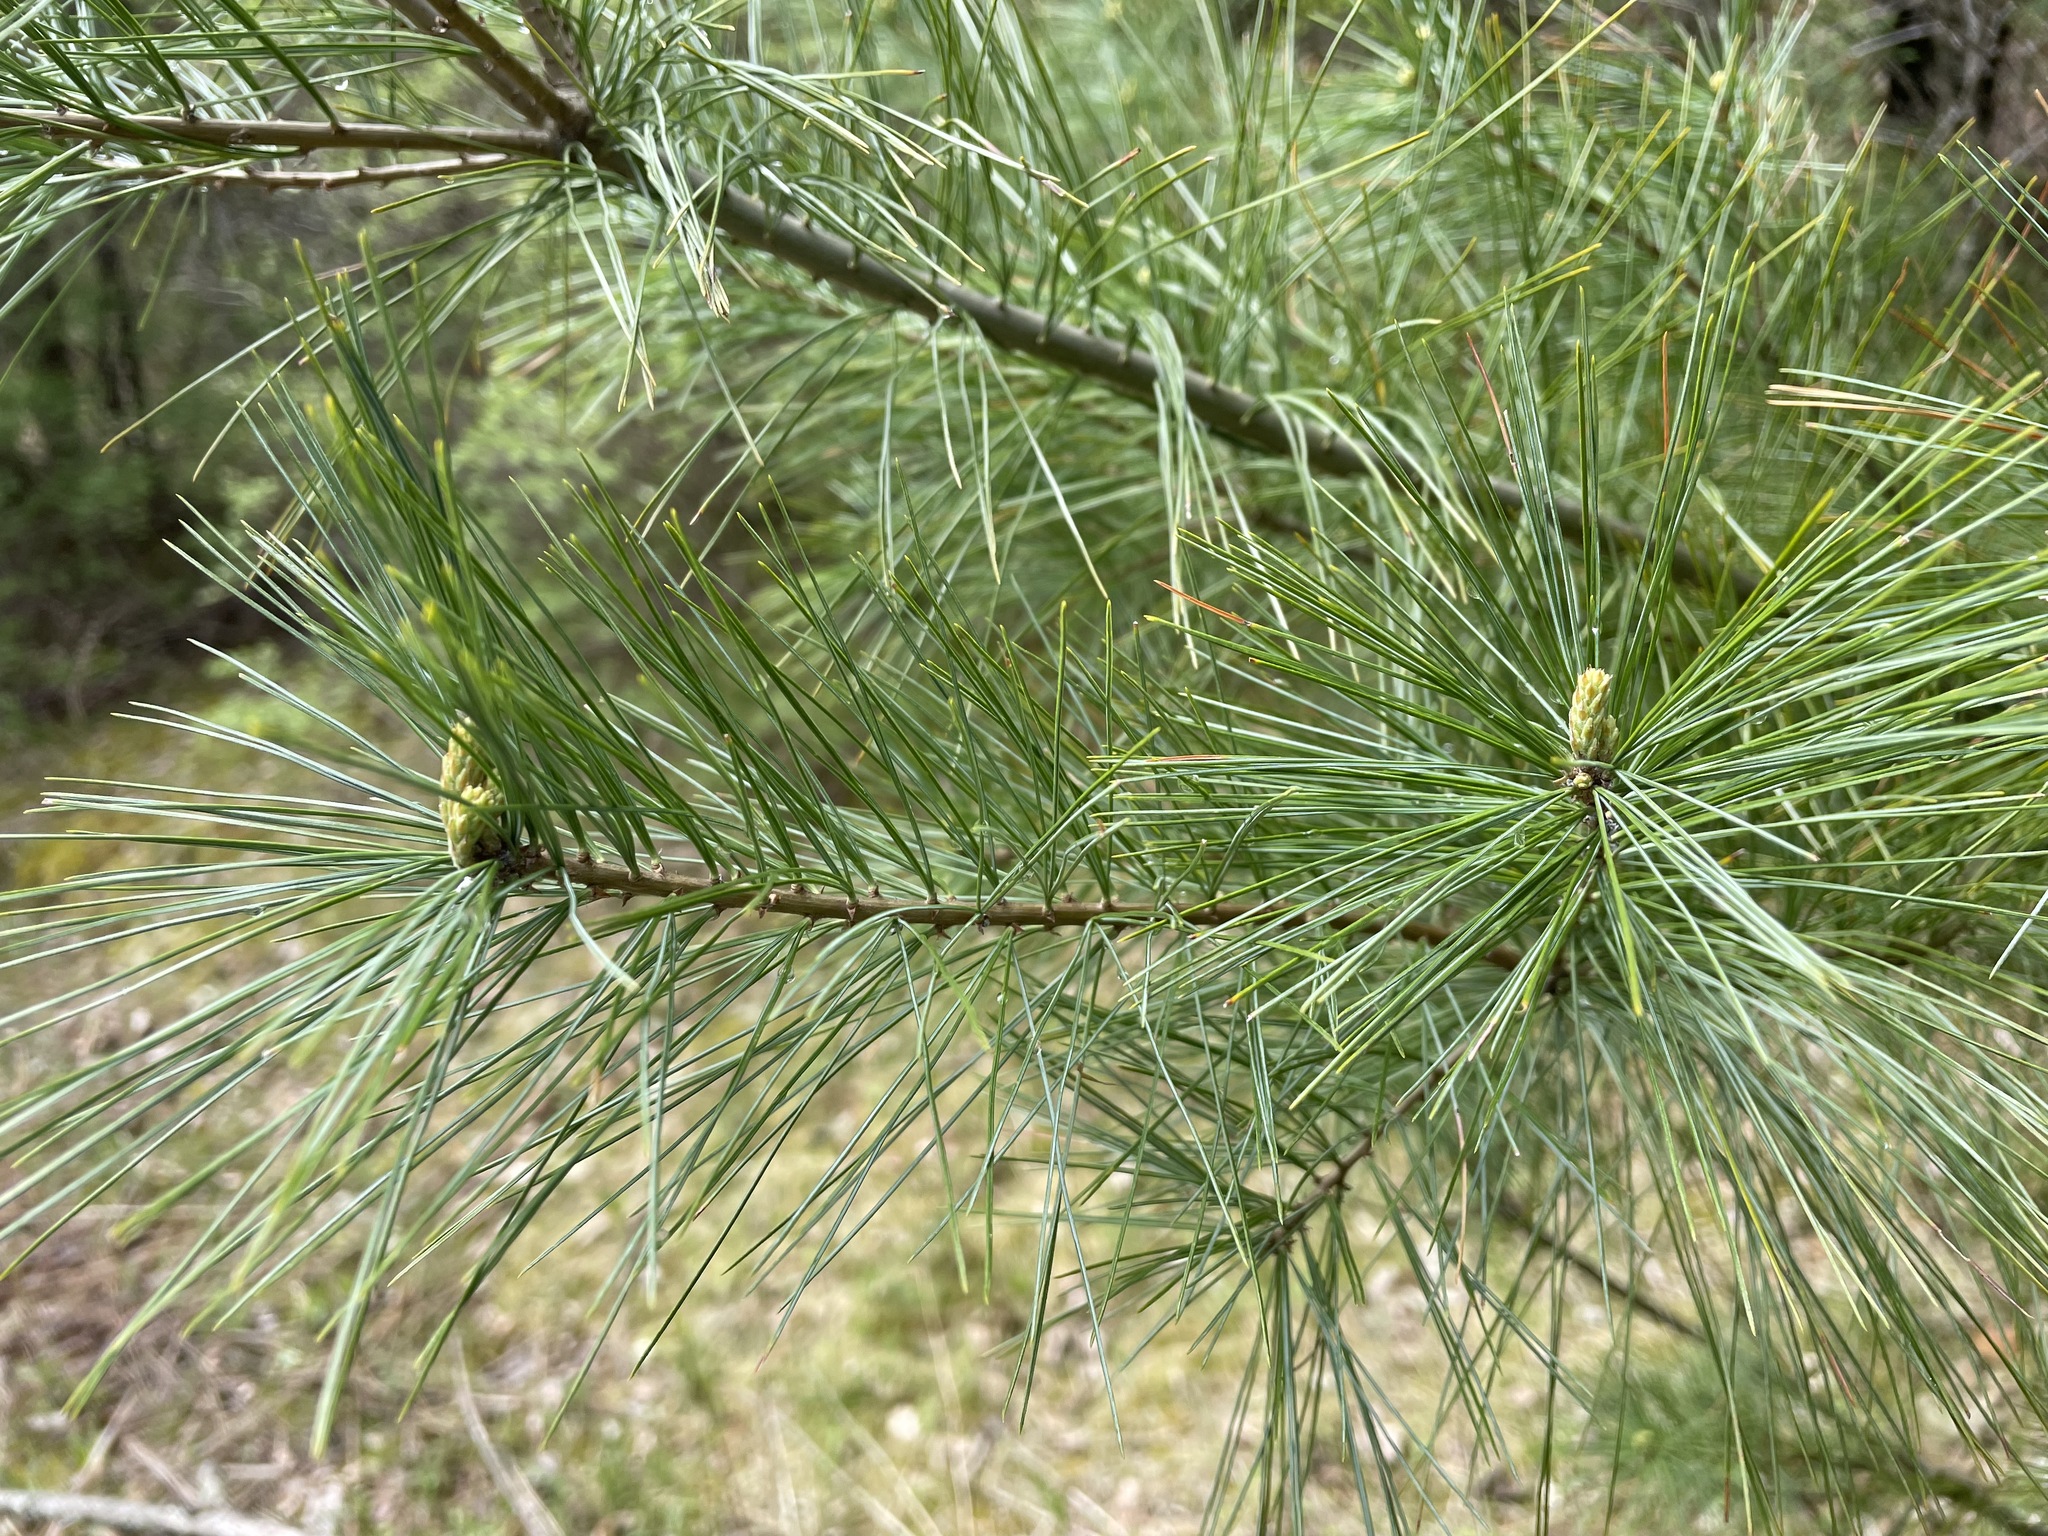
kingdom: Plantae
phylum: Tracheophyta
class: Pinopsida
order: Pinales
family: Pinaceae
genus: Pinus
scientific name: Pinus strobus
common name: Weymouth pine
